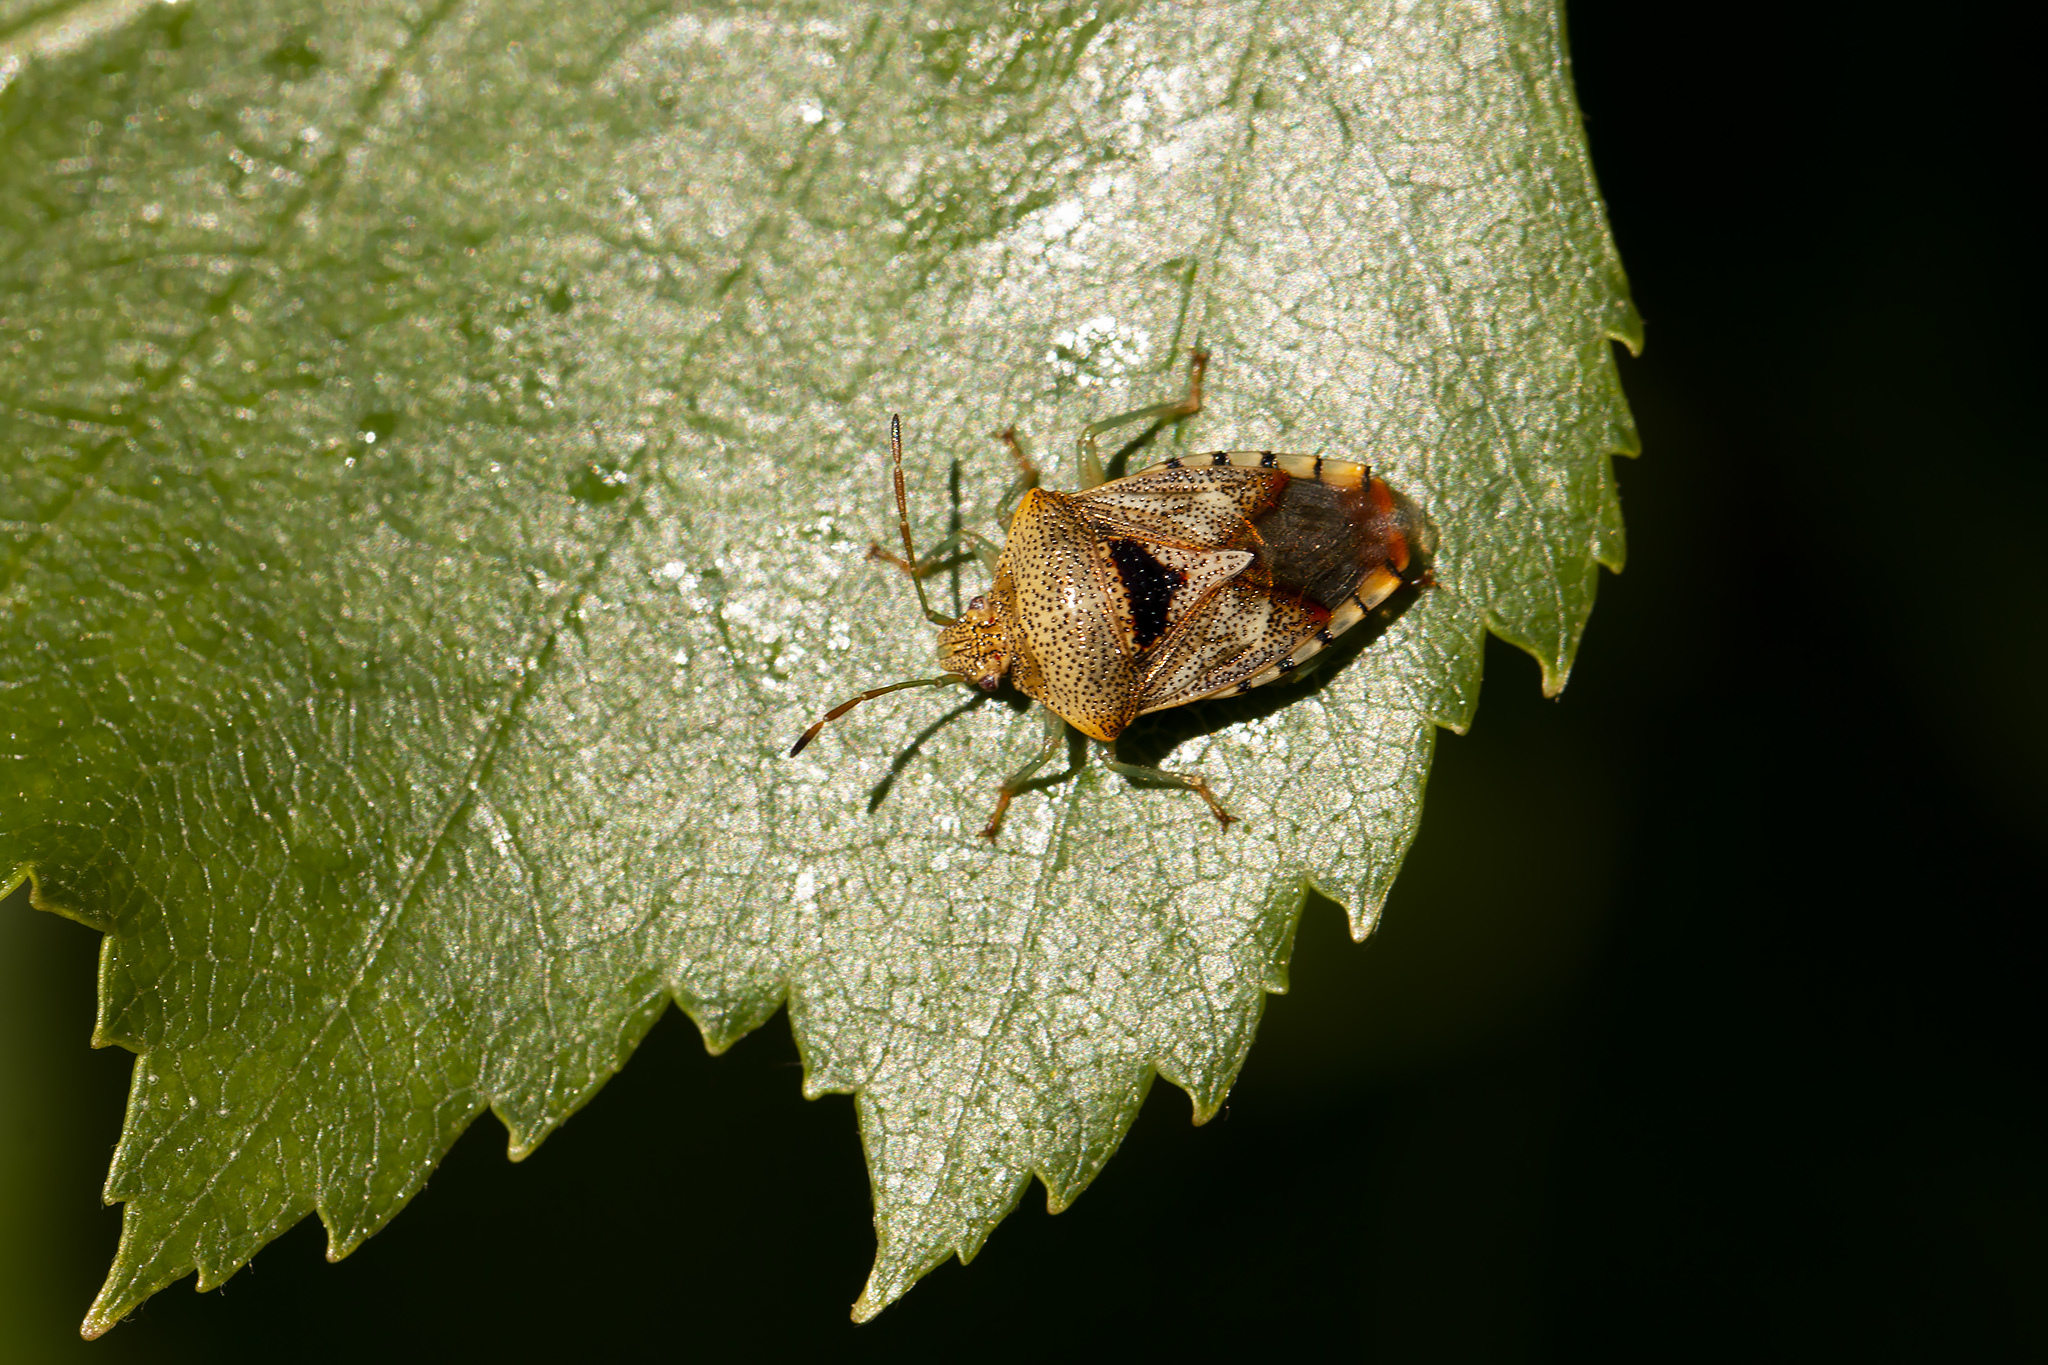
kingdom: Animalia
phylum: Arthropoda
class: Insecta
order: Hemiptera
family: Acanthosomatidae
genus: Elasmucha
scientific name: Elasmucha grisea
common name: Parent bug
